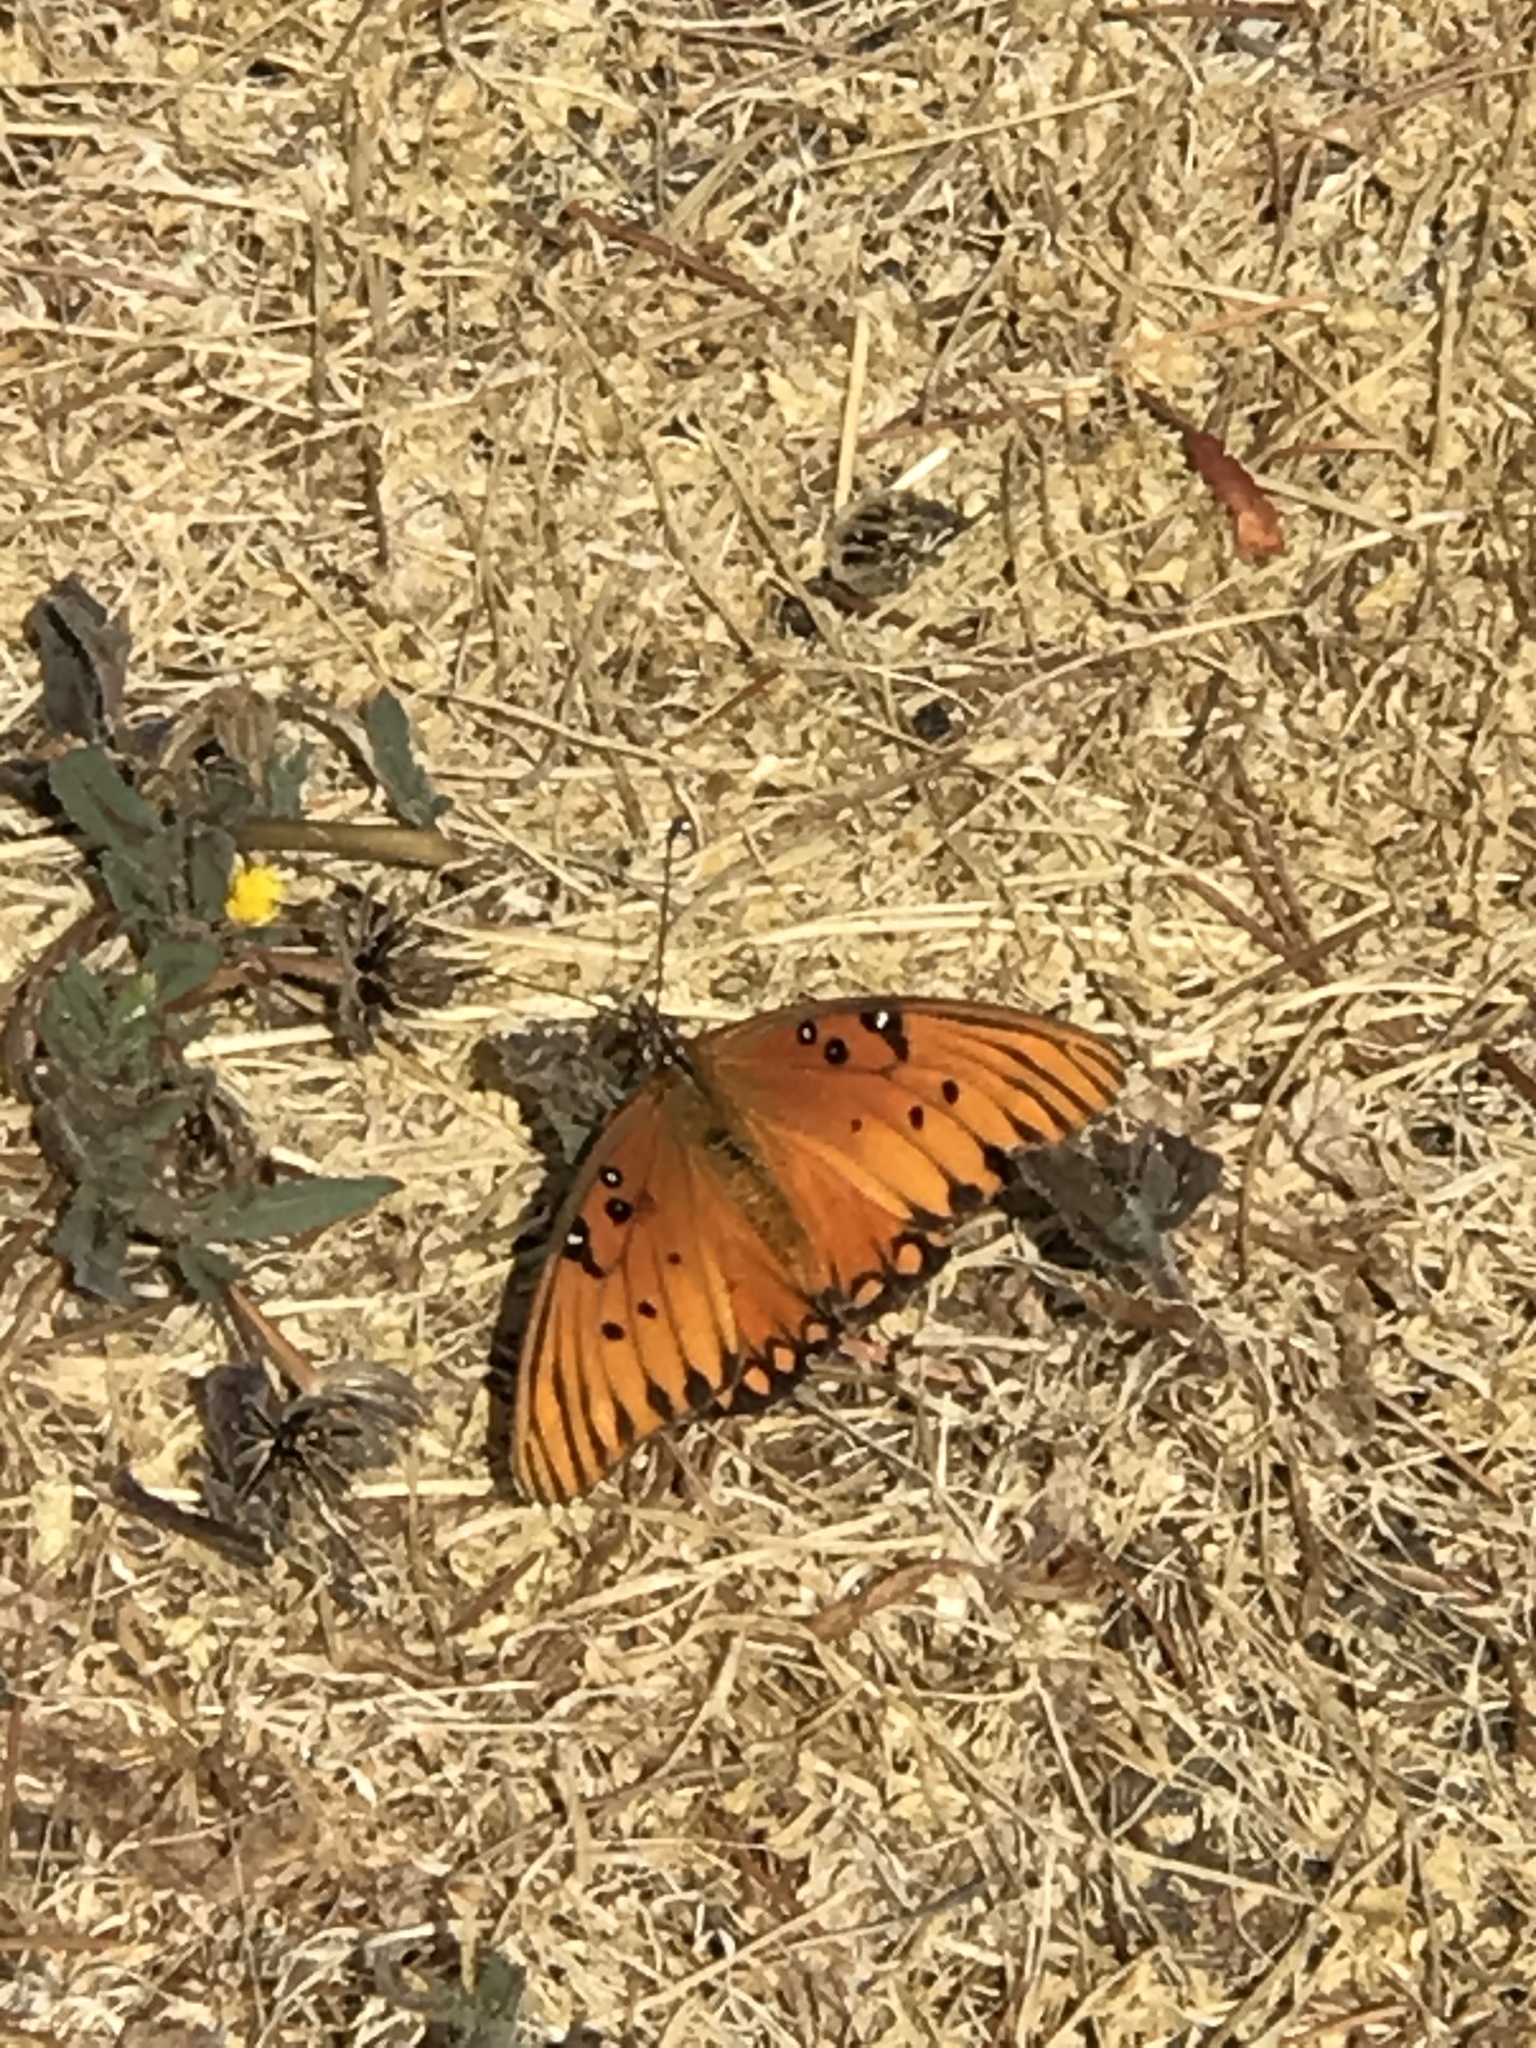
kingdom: Animalia
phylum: Arthropoda
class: Insecta
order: Lepidoptera
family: Nymphalidae
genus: Dione
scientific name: Dione vanillae
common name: Gulf fritillary
